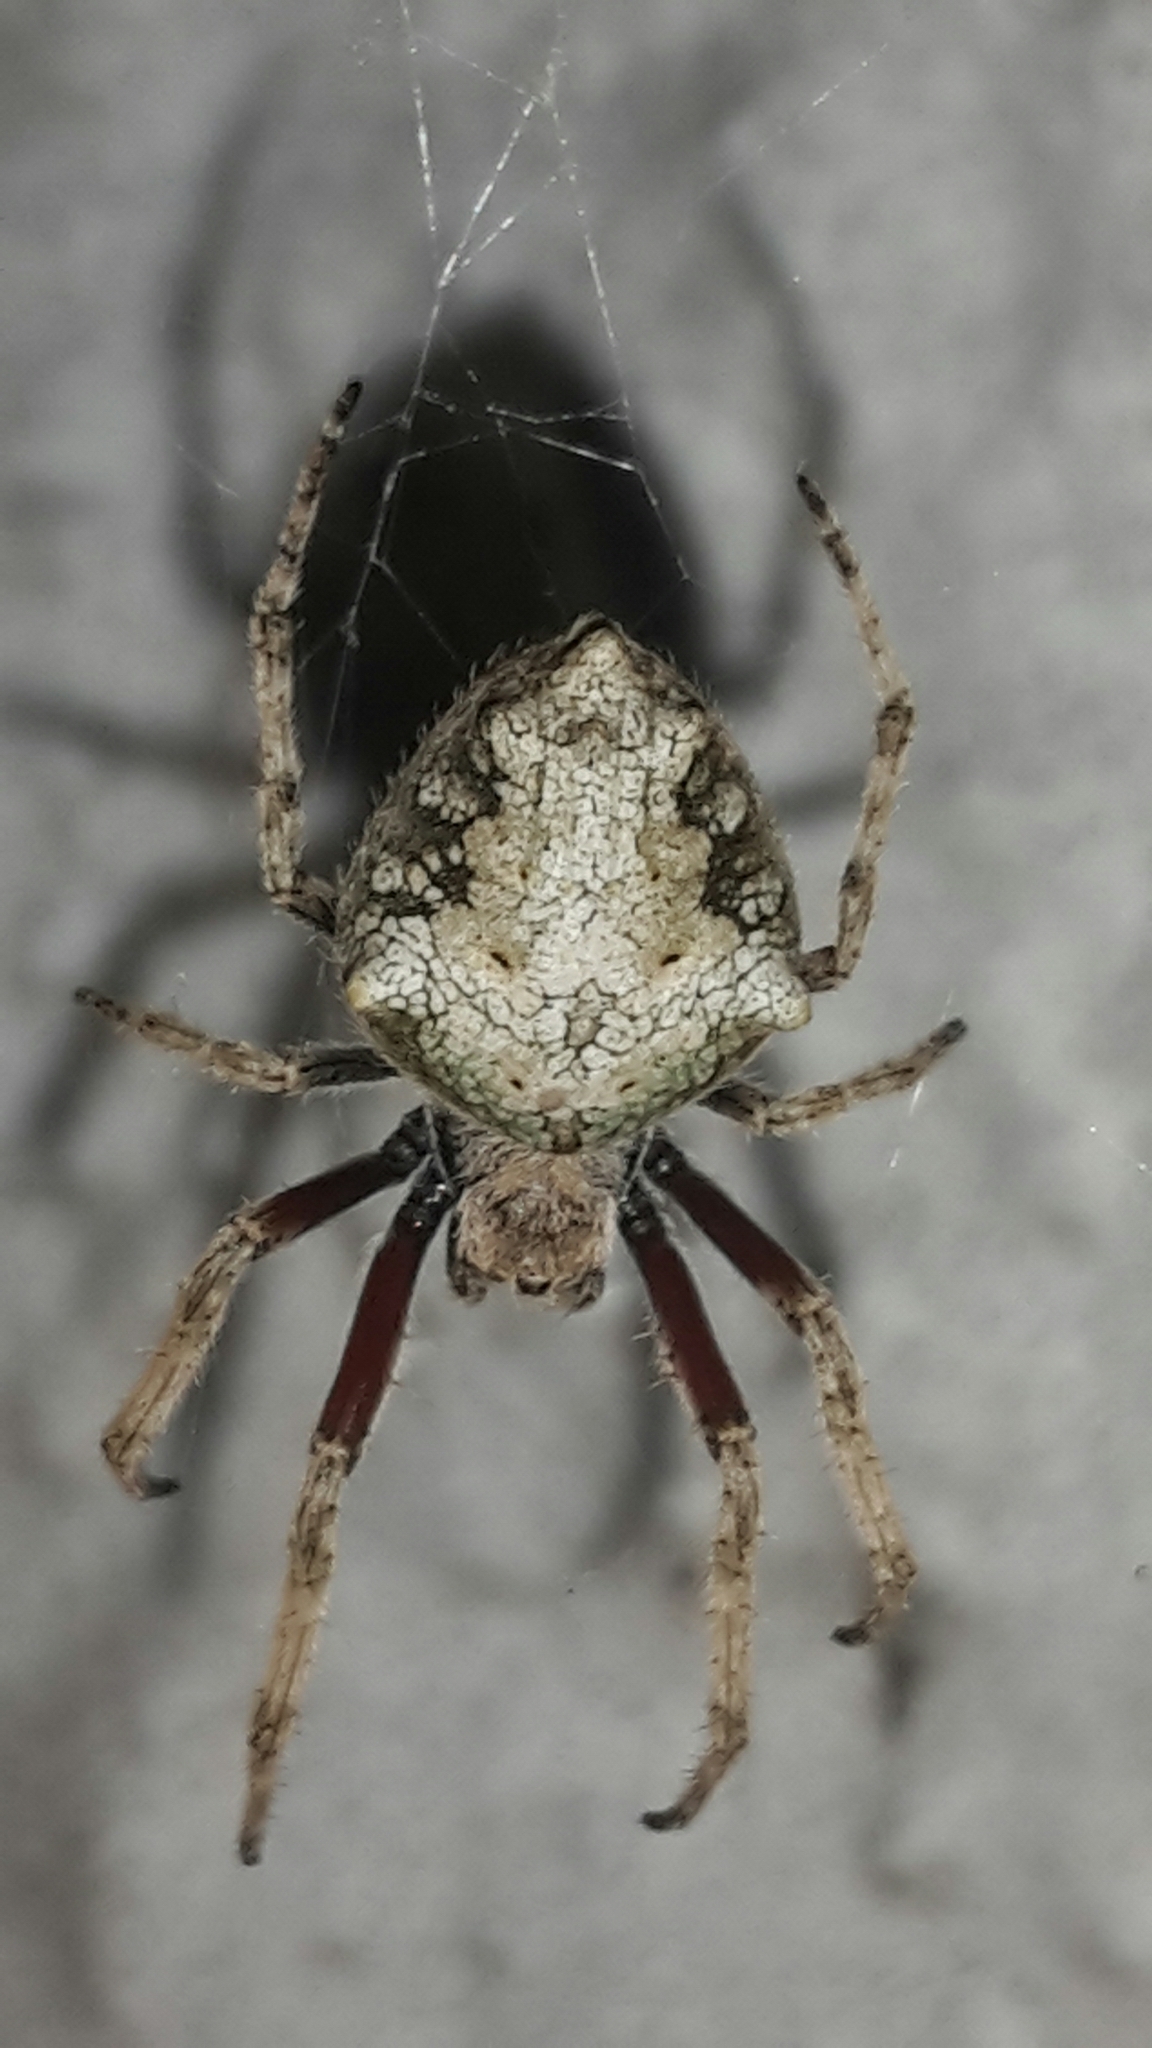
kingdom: Animalia
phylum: Arthropoda
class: Arachnida
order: Araneae
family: Araneidae
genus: Eriophora
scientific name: Eriophora pustulosa
